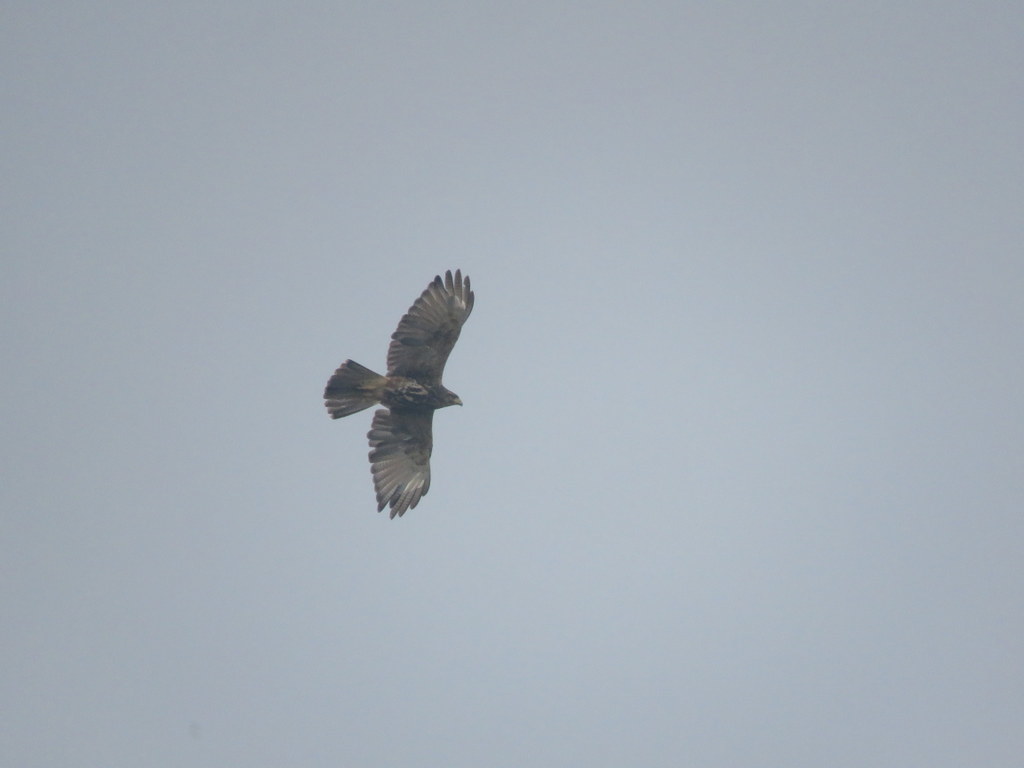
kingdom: Animalia
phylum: Chordata
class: Aves
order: Accipitriformes
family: Accipitridae
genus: Parabuteo
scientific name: Parabuteo unicinctus
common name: Harris's hawk
